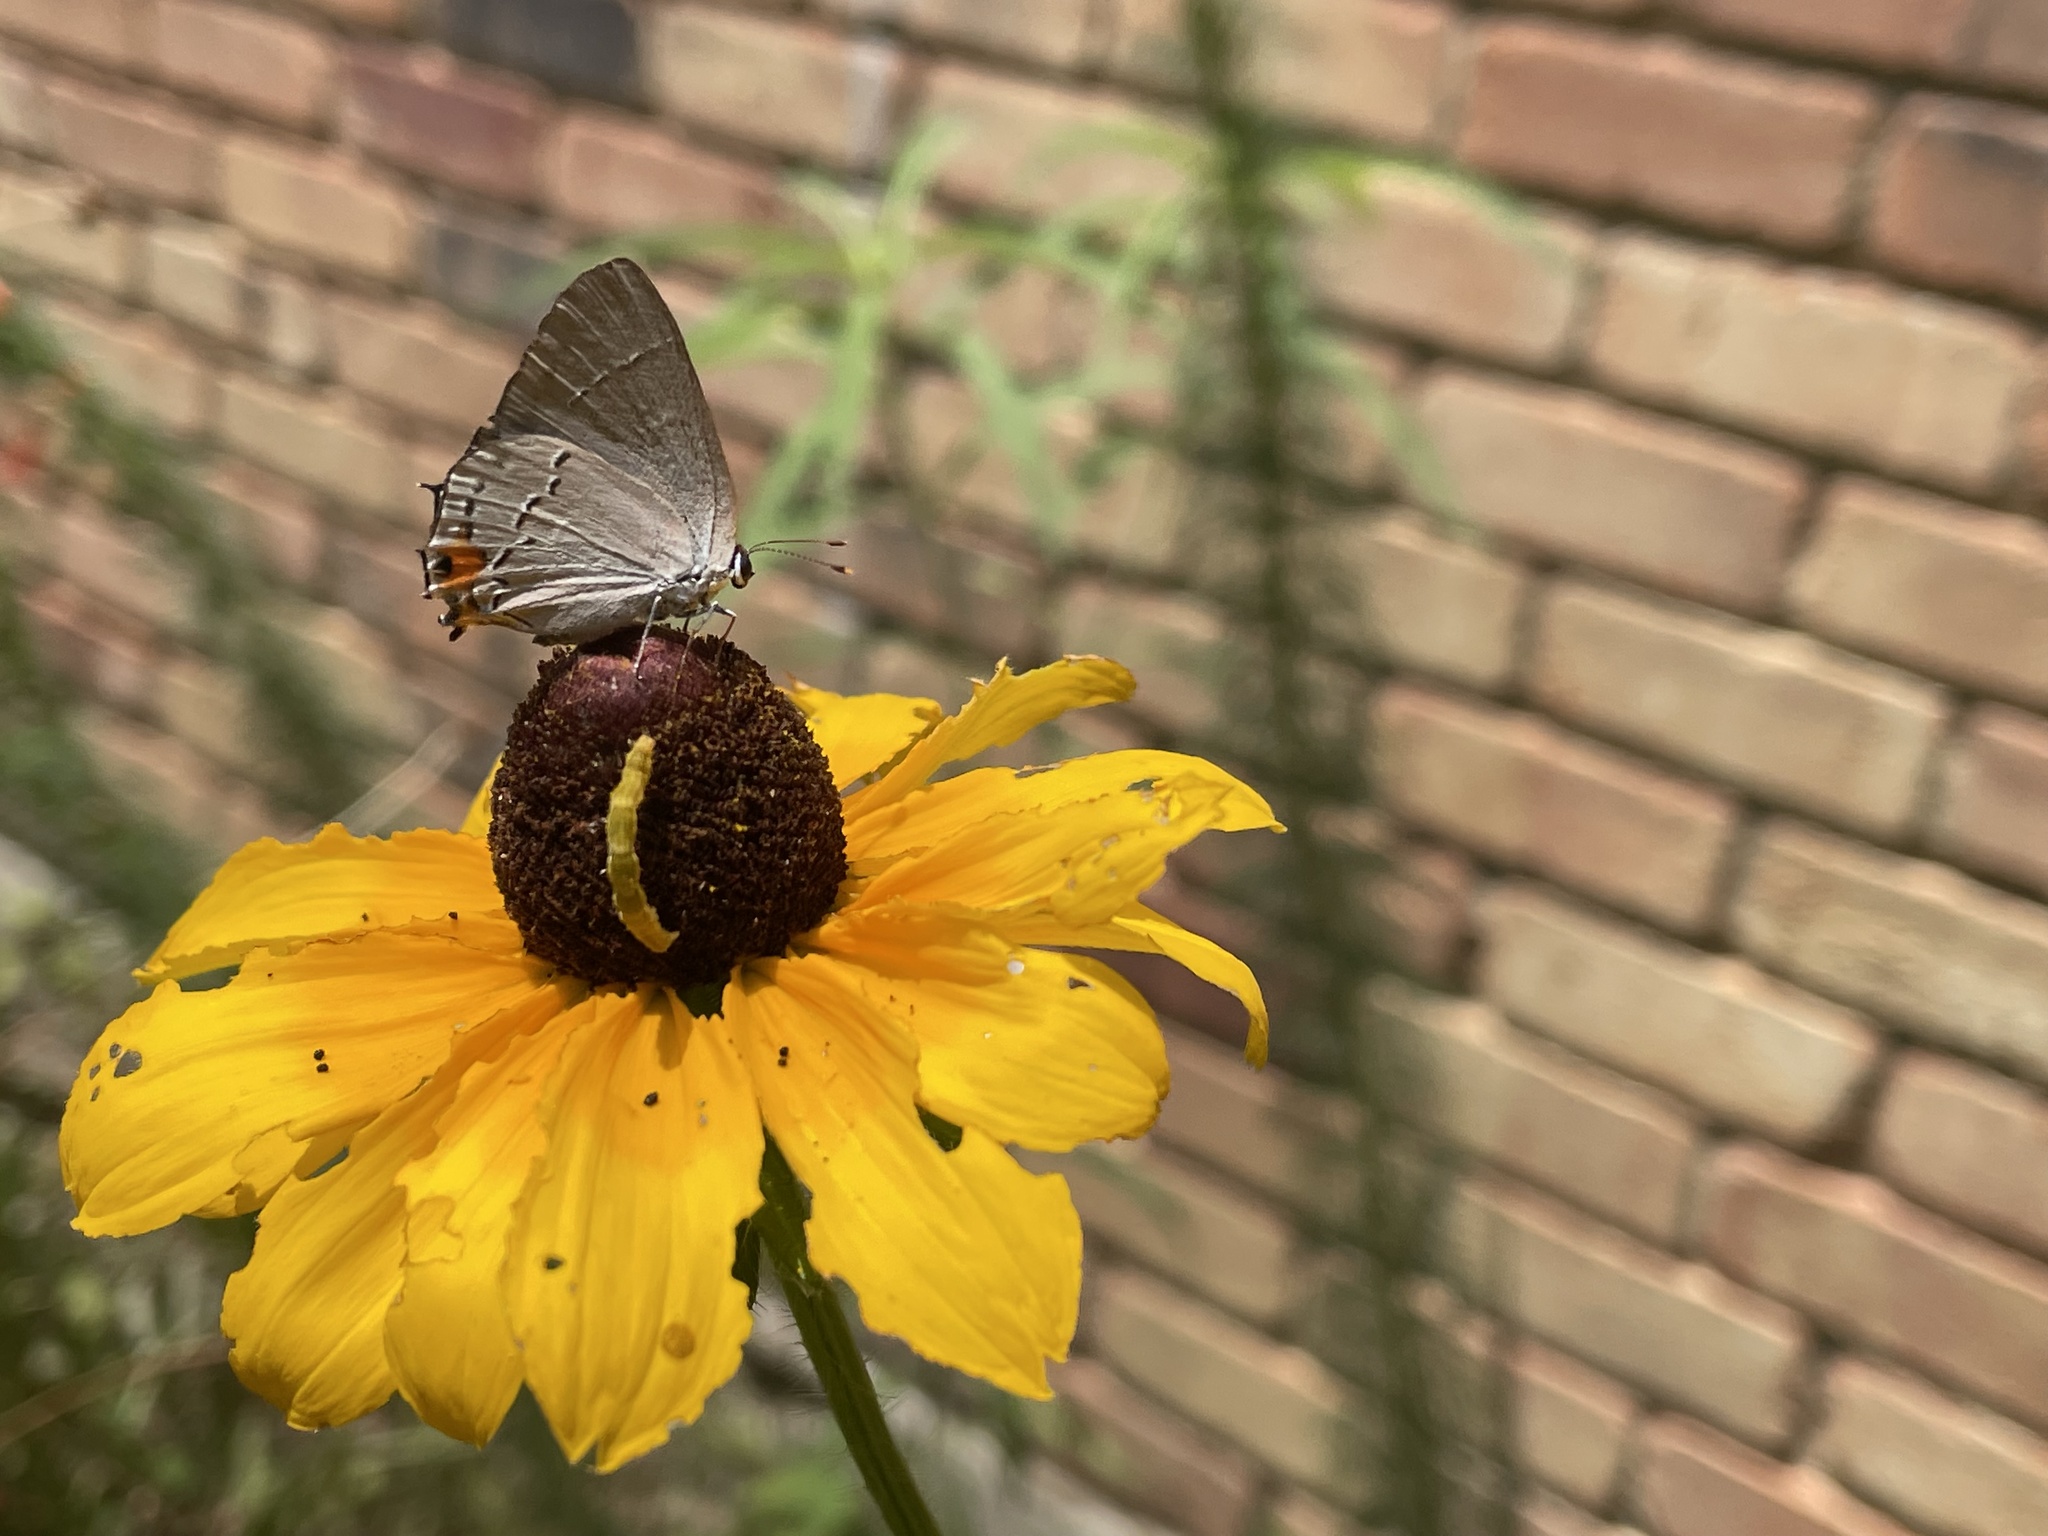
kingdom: Animalia
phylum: Arthropoda
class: Insecta
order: Lepidoptera
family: Lycaenidae
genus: Strymon
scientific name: Strymon melinus
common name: Gray hairstreak
